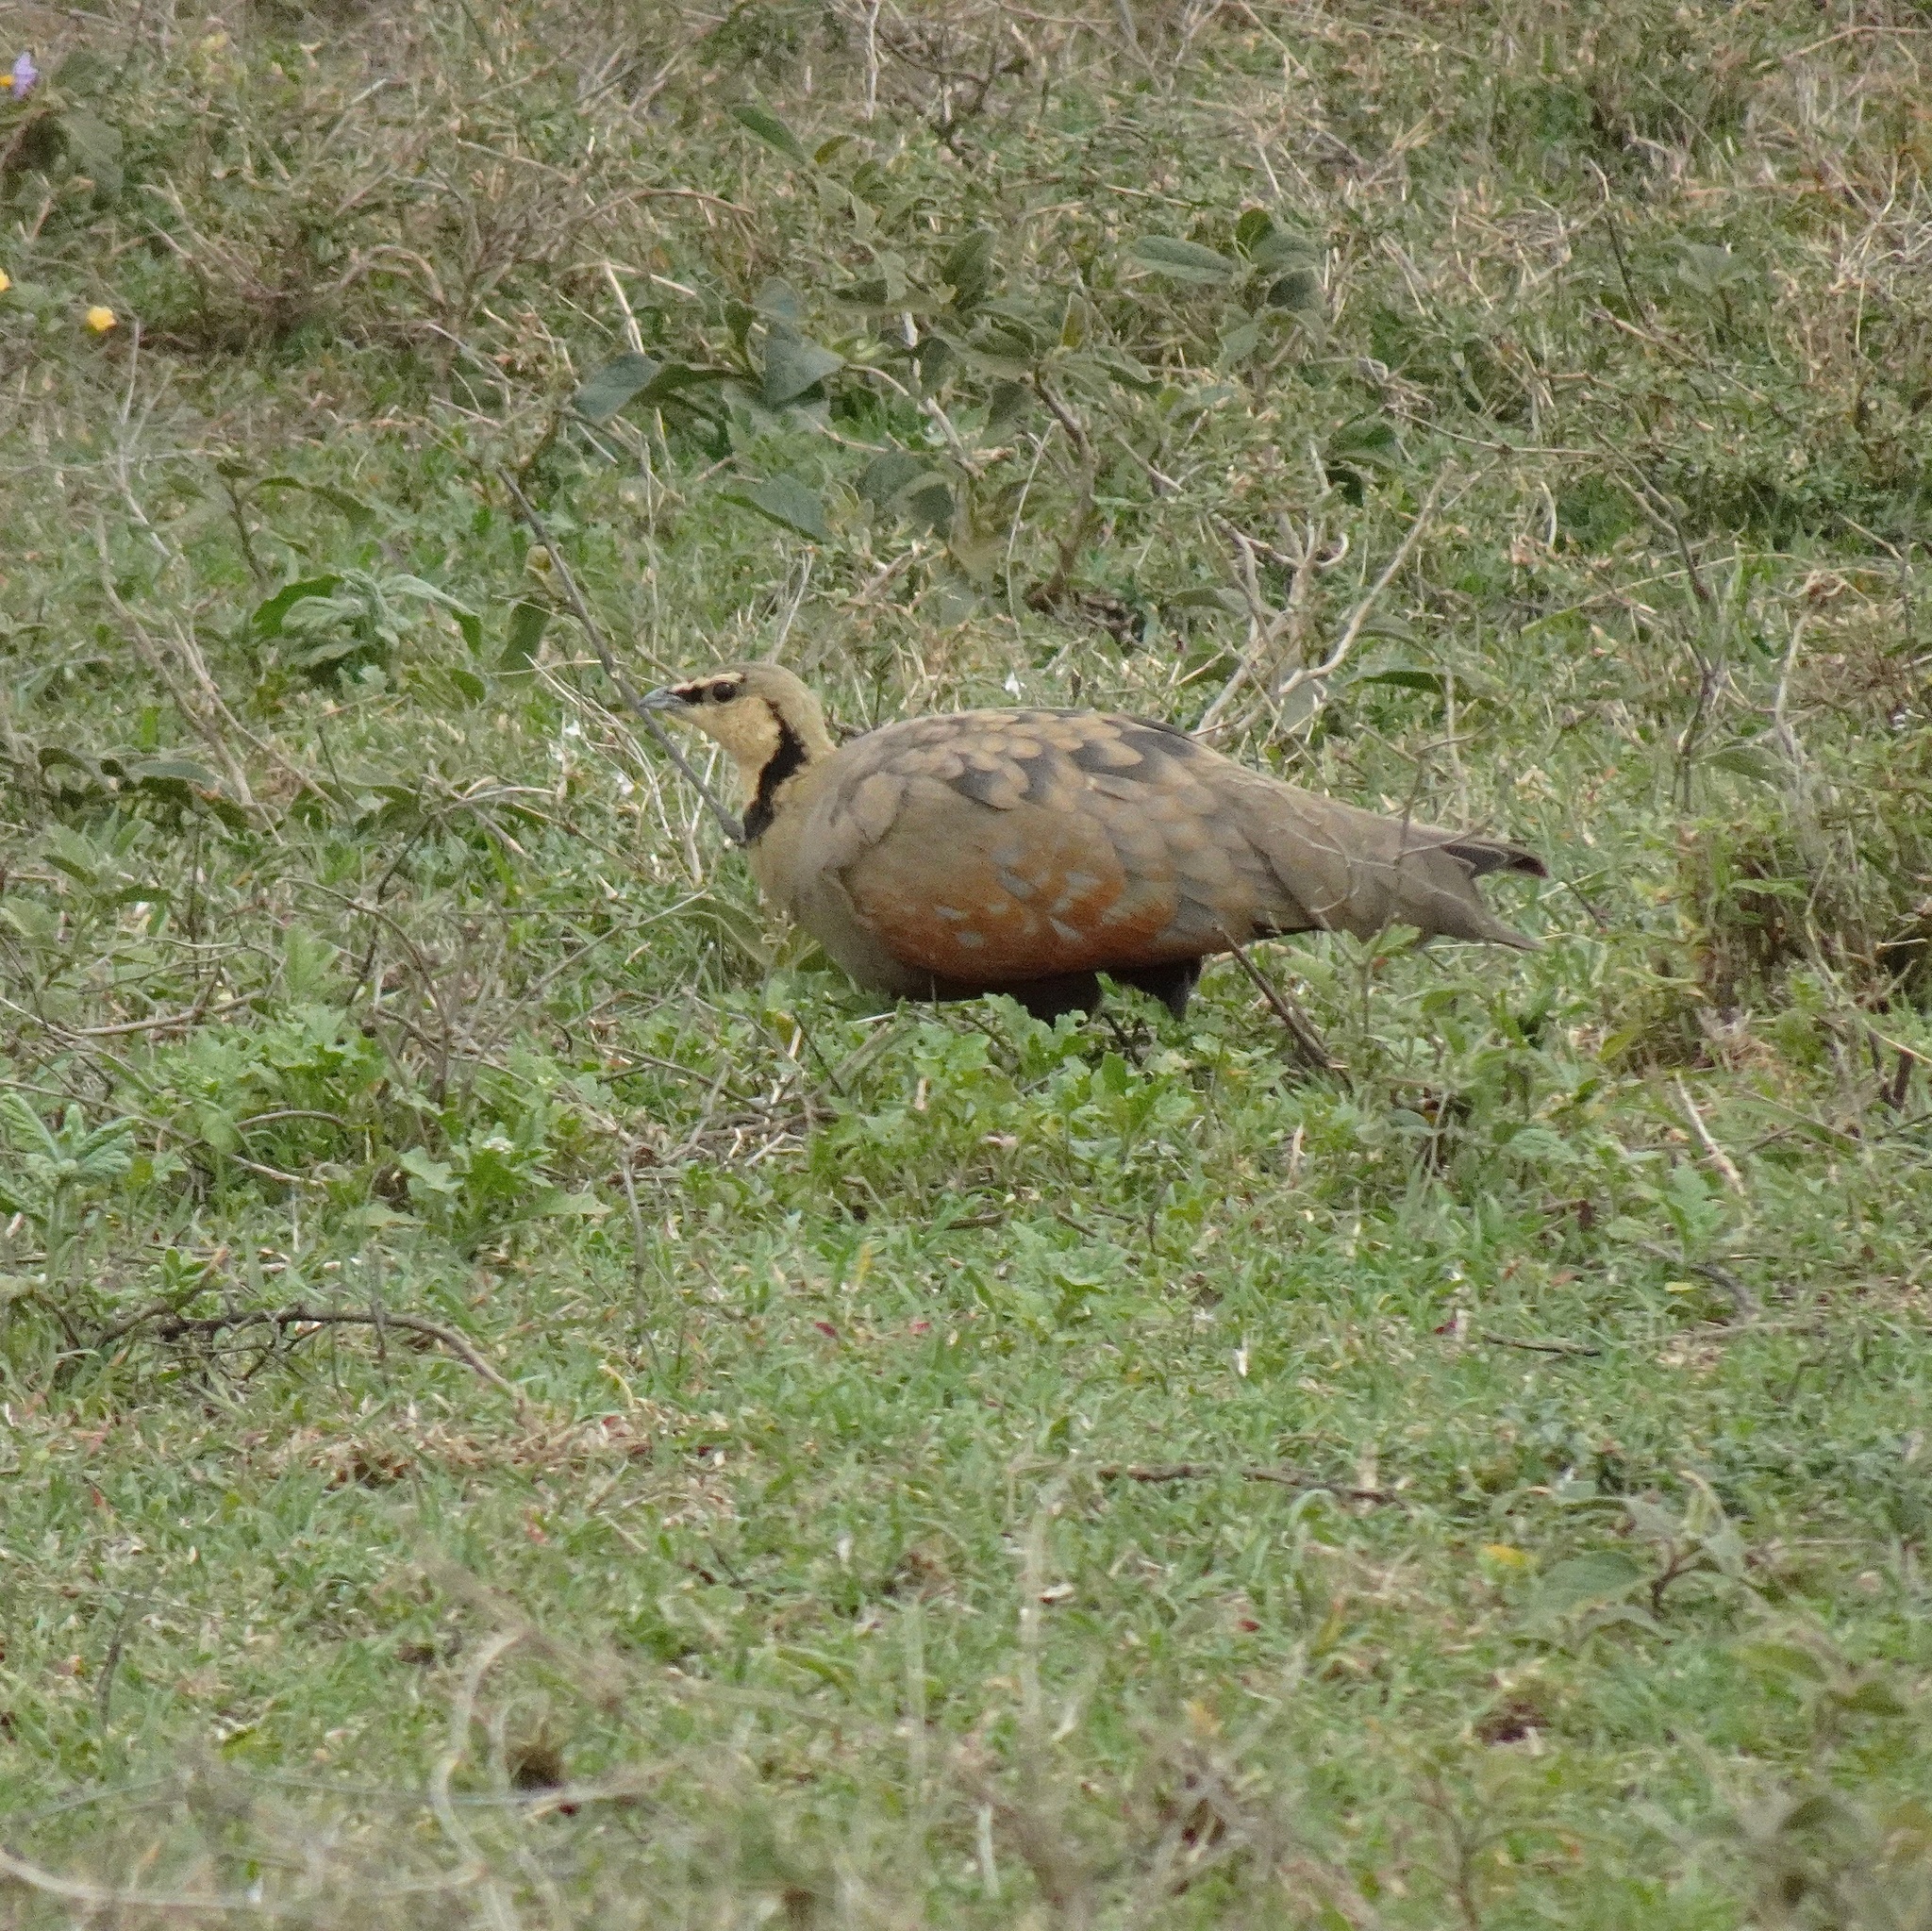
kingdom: Animalia
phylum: Chordata
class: Aves
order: Pteroclidiformes
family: Pteroclididae
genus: Pterocles
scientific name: Pterocles gutturalis
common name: Yellow-throated sandgrouse
